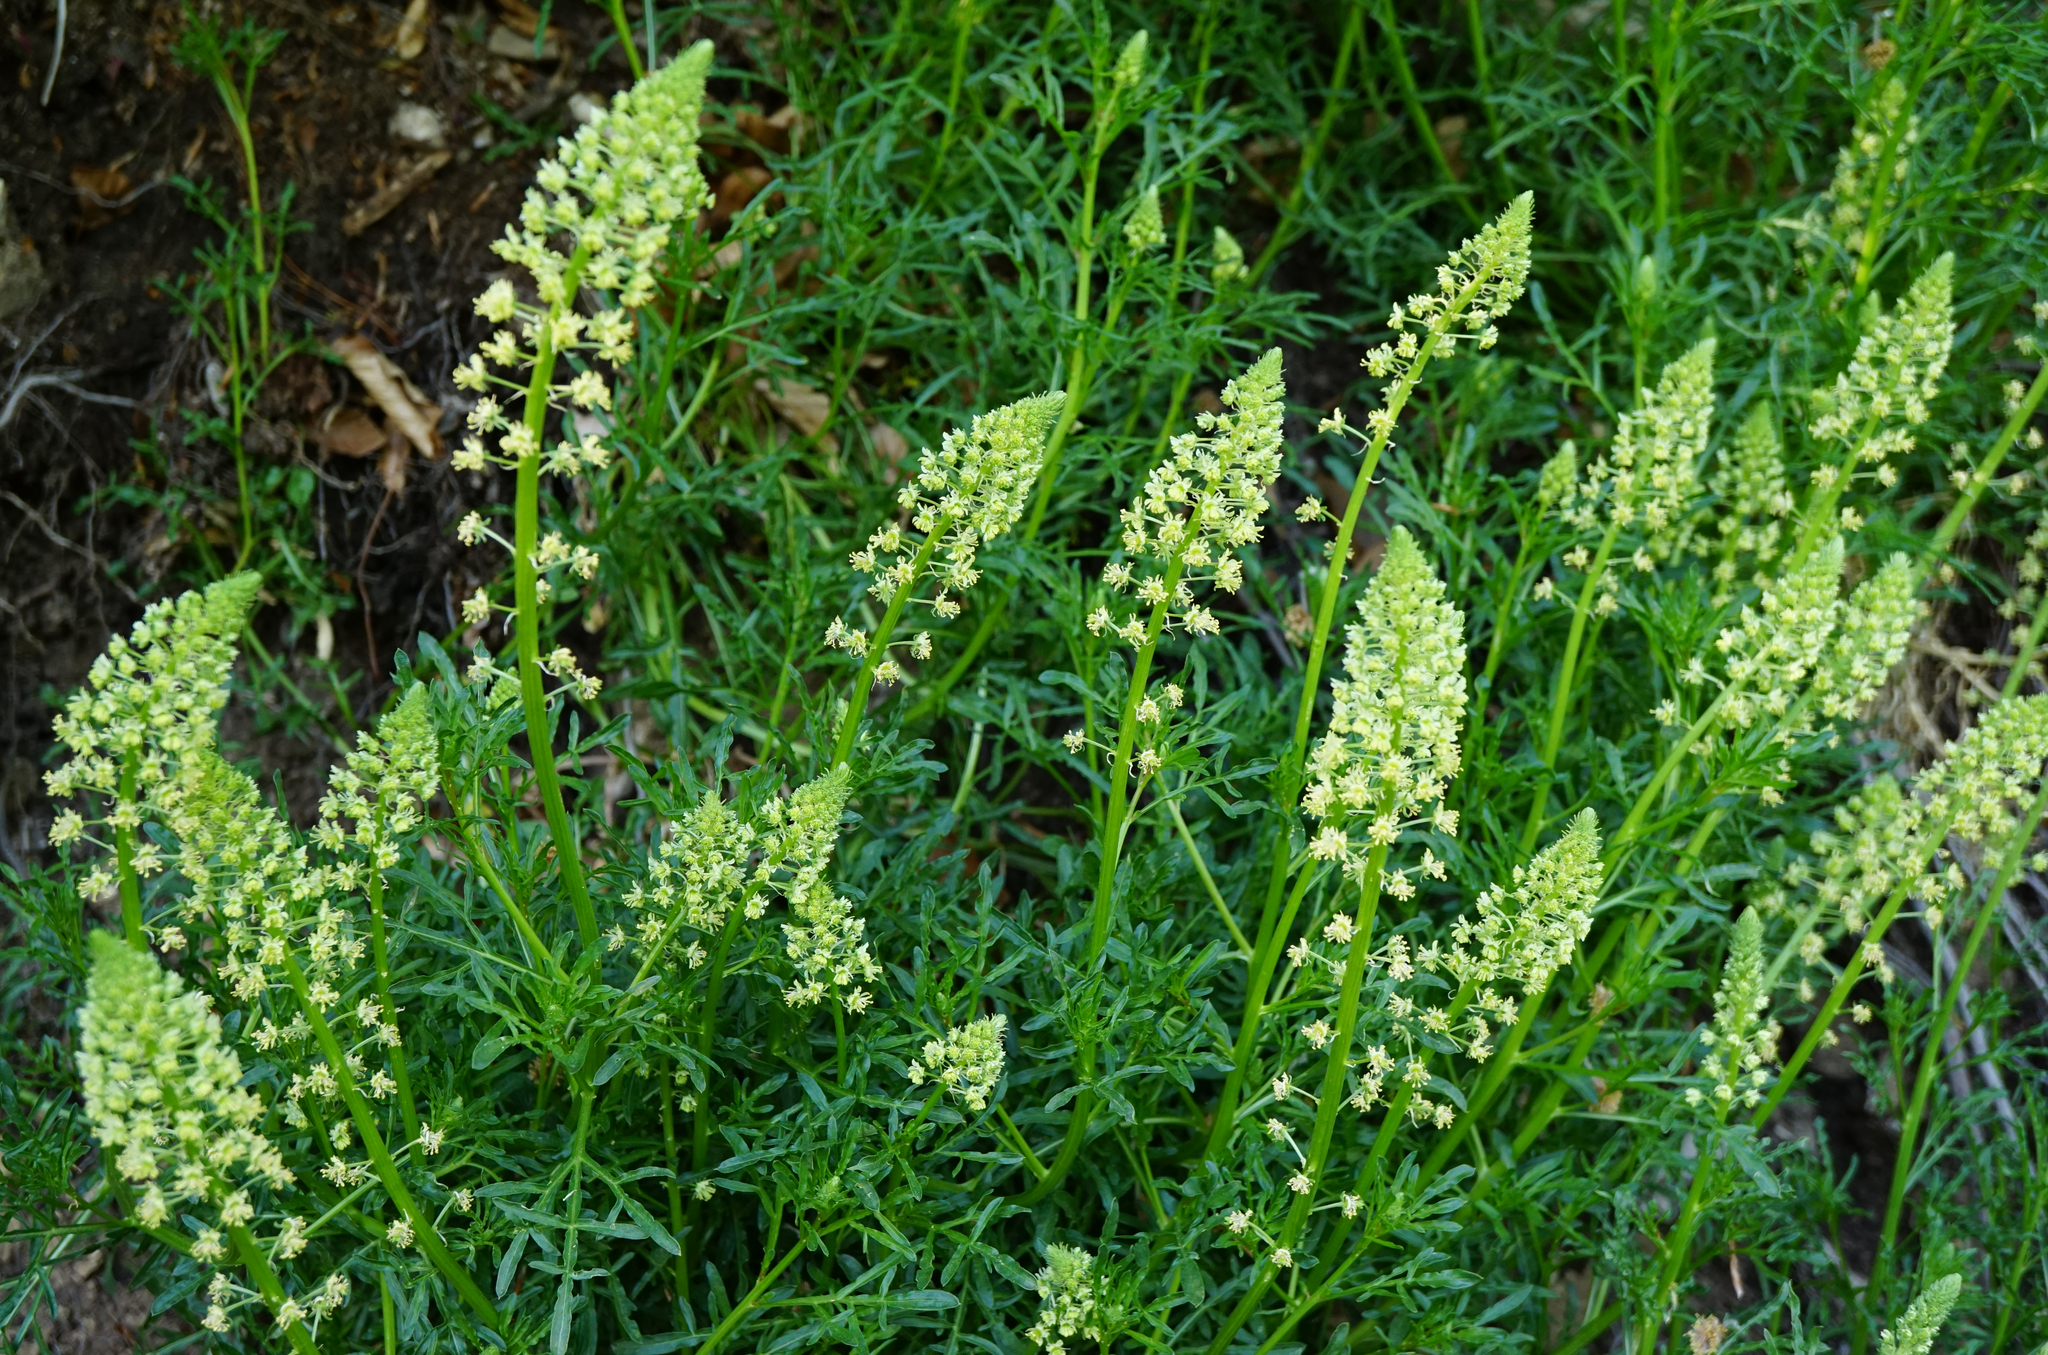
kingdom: Plantae
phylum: Tracheophyta
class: Magnoliopsida
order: Brassicales
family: Resedaceae
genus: Reseda
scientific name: Reseda lutea
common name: Wild mignonette
